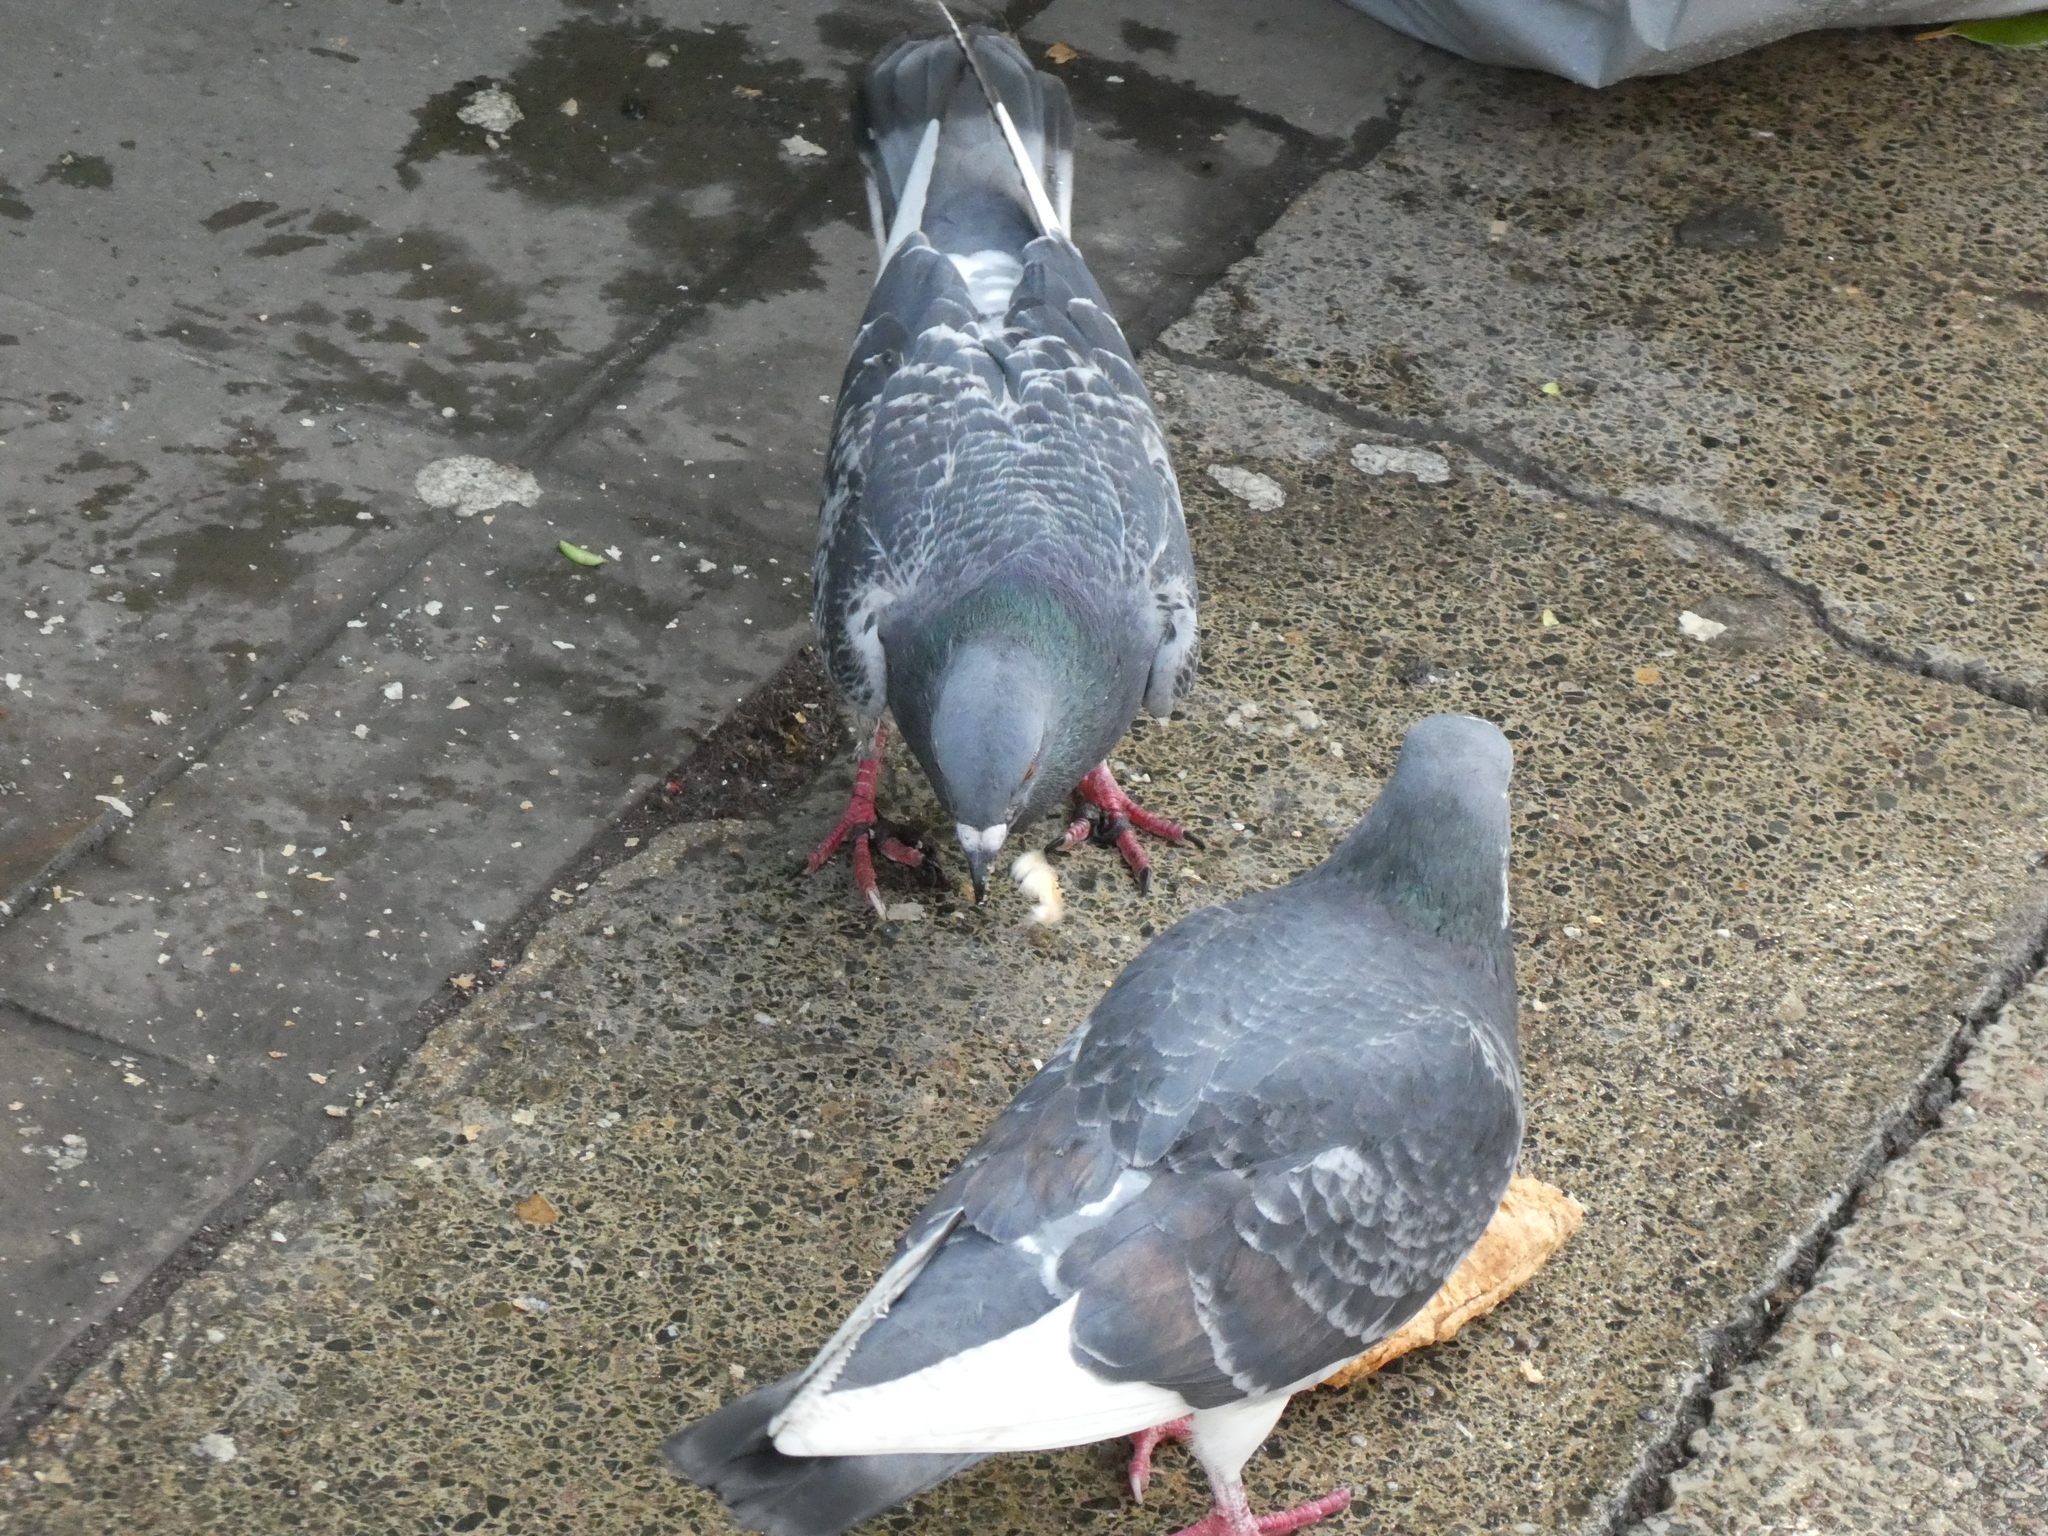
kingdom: Animalia
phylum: Chordata
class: Aves
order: Columbiformes
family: Columbidae
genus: Columba
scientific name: Columba livia
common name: Rock pigeon
